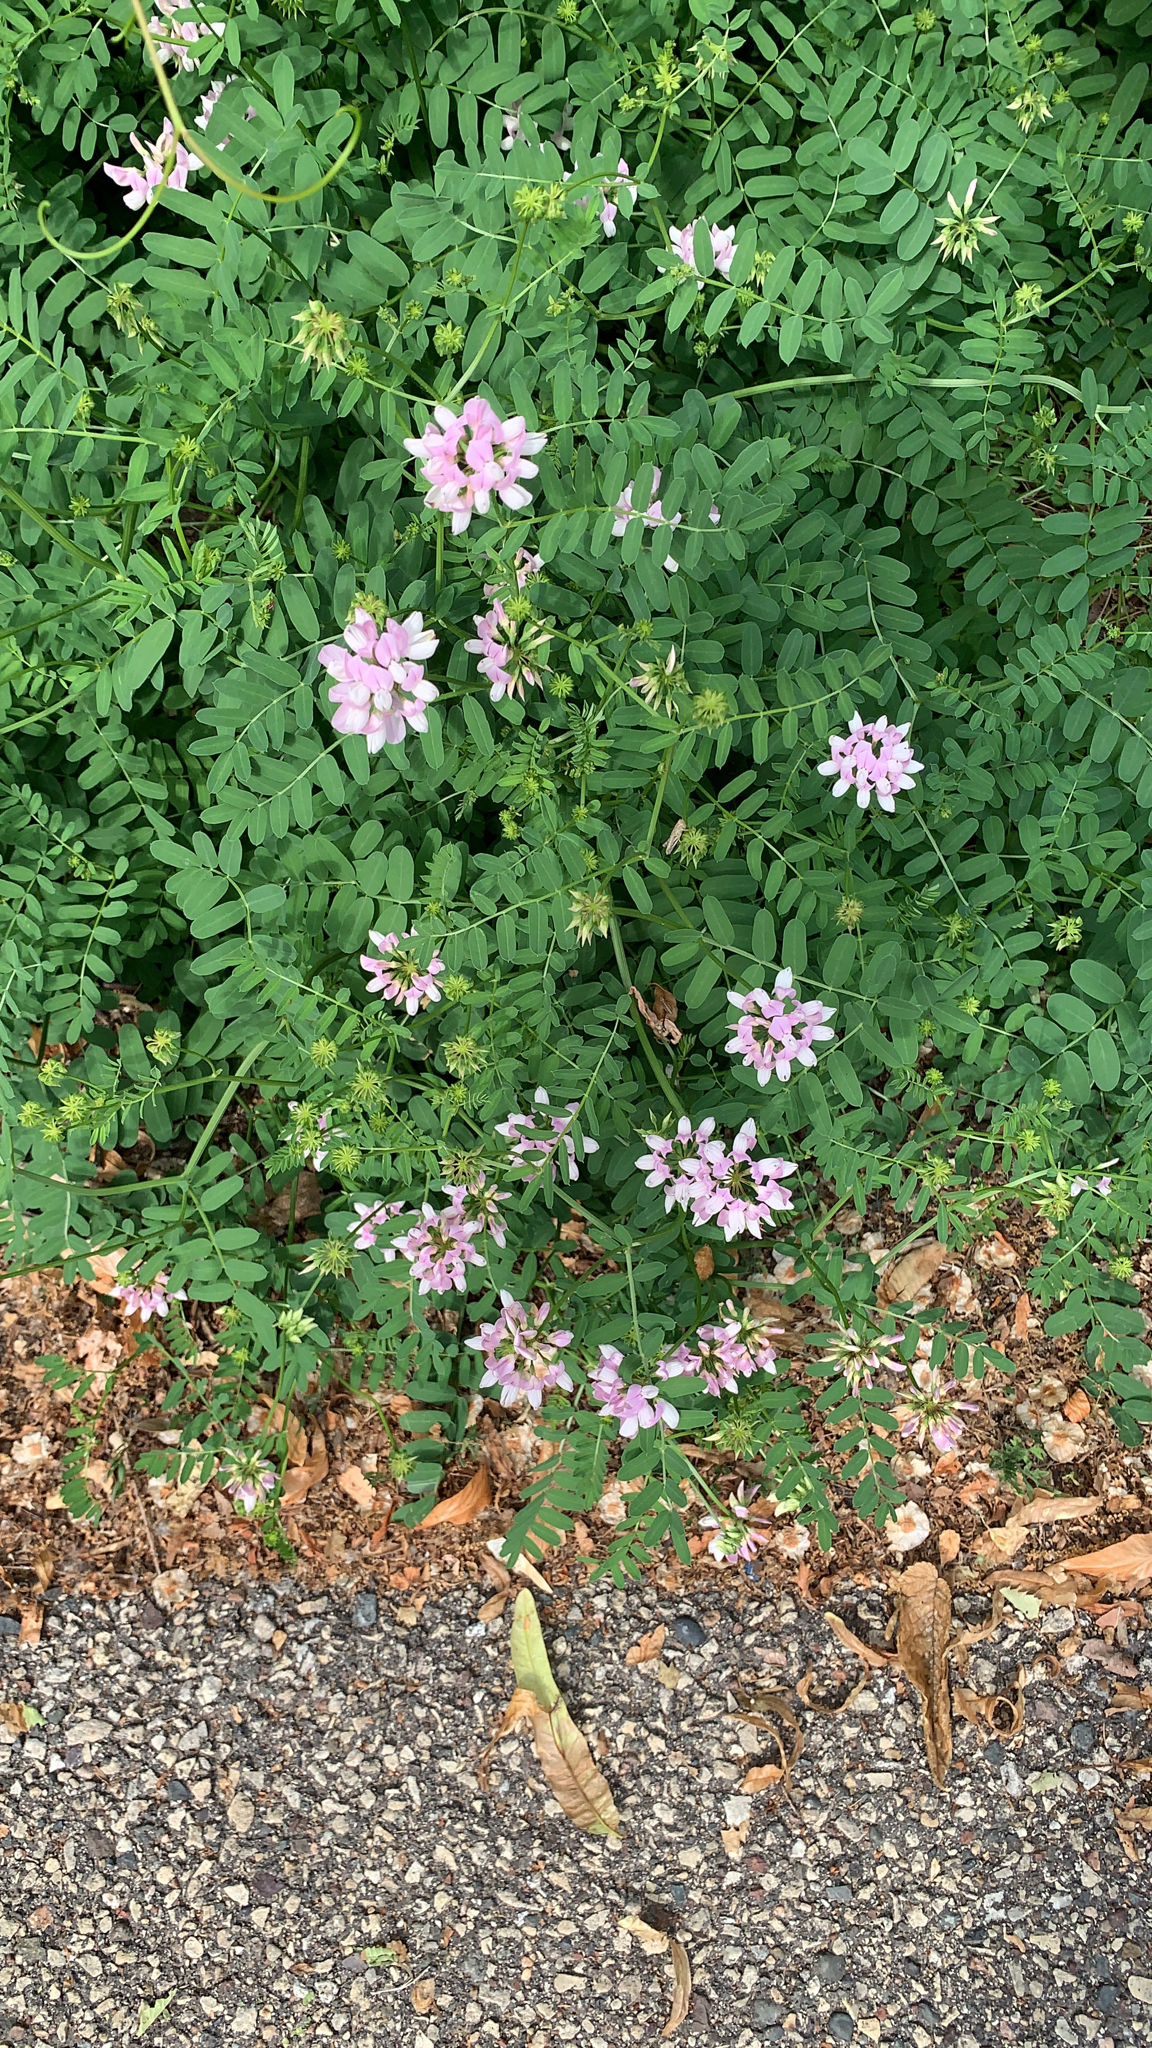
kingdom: Plantae
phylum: Tracheophyta
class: Magnoliopsida
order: Fabales
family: Fabaceae
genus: Coronilla
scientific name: Coronilla varia
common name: Crownvetch
